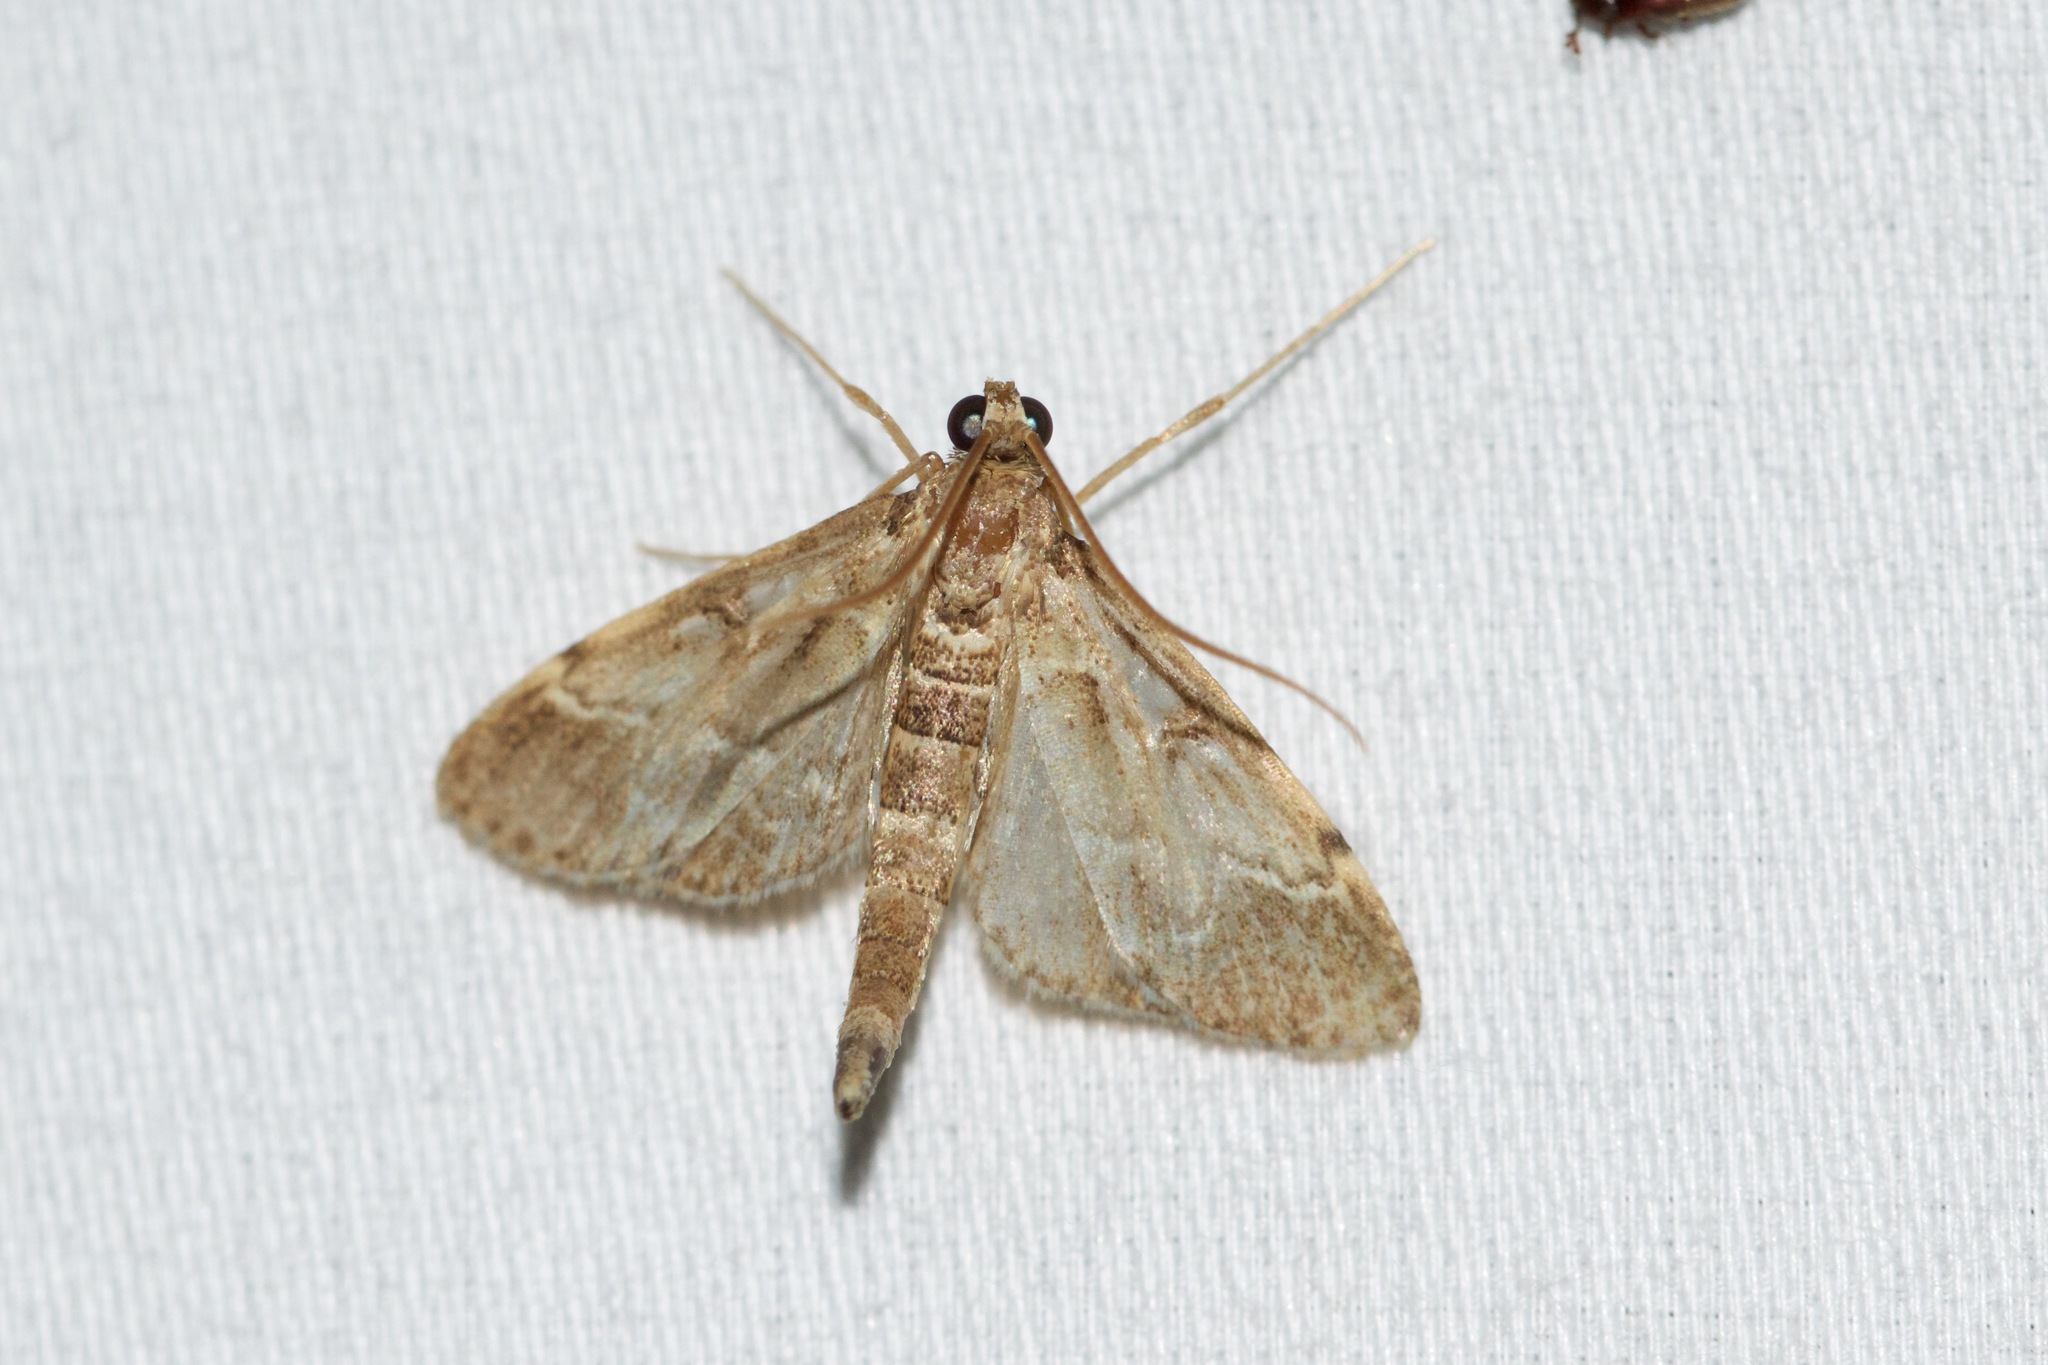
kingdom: Animalia
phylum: Arthropoda
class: Insecta
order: Lepidoptera
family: Crambidae
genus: Duponchelia
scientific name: Duponchelia fovealis
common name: Crambid moth
